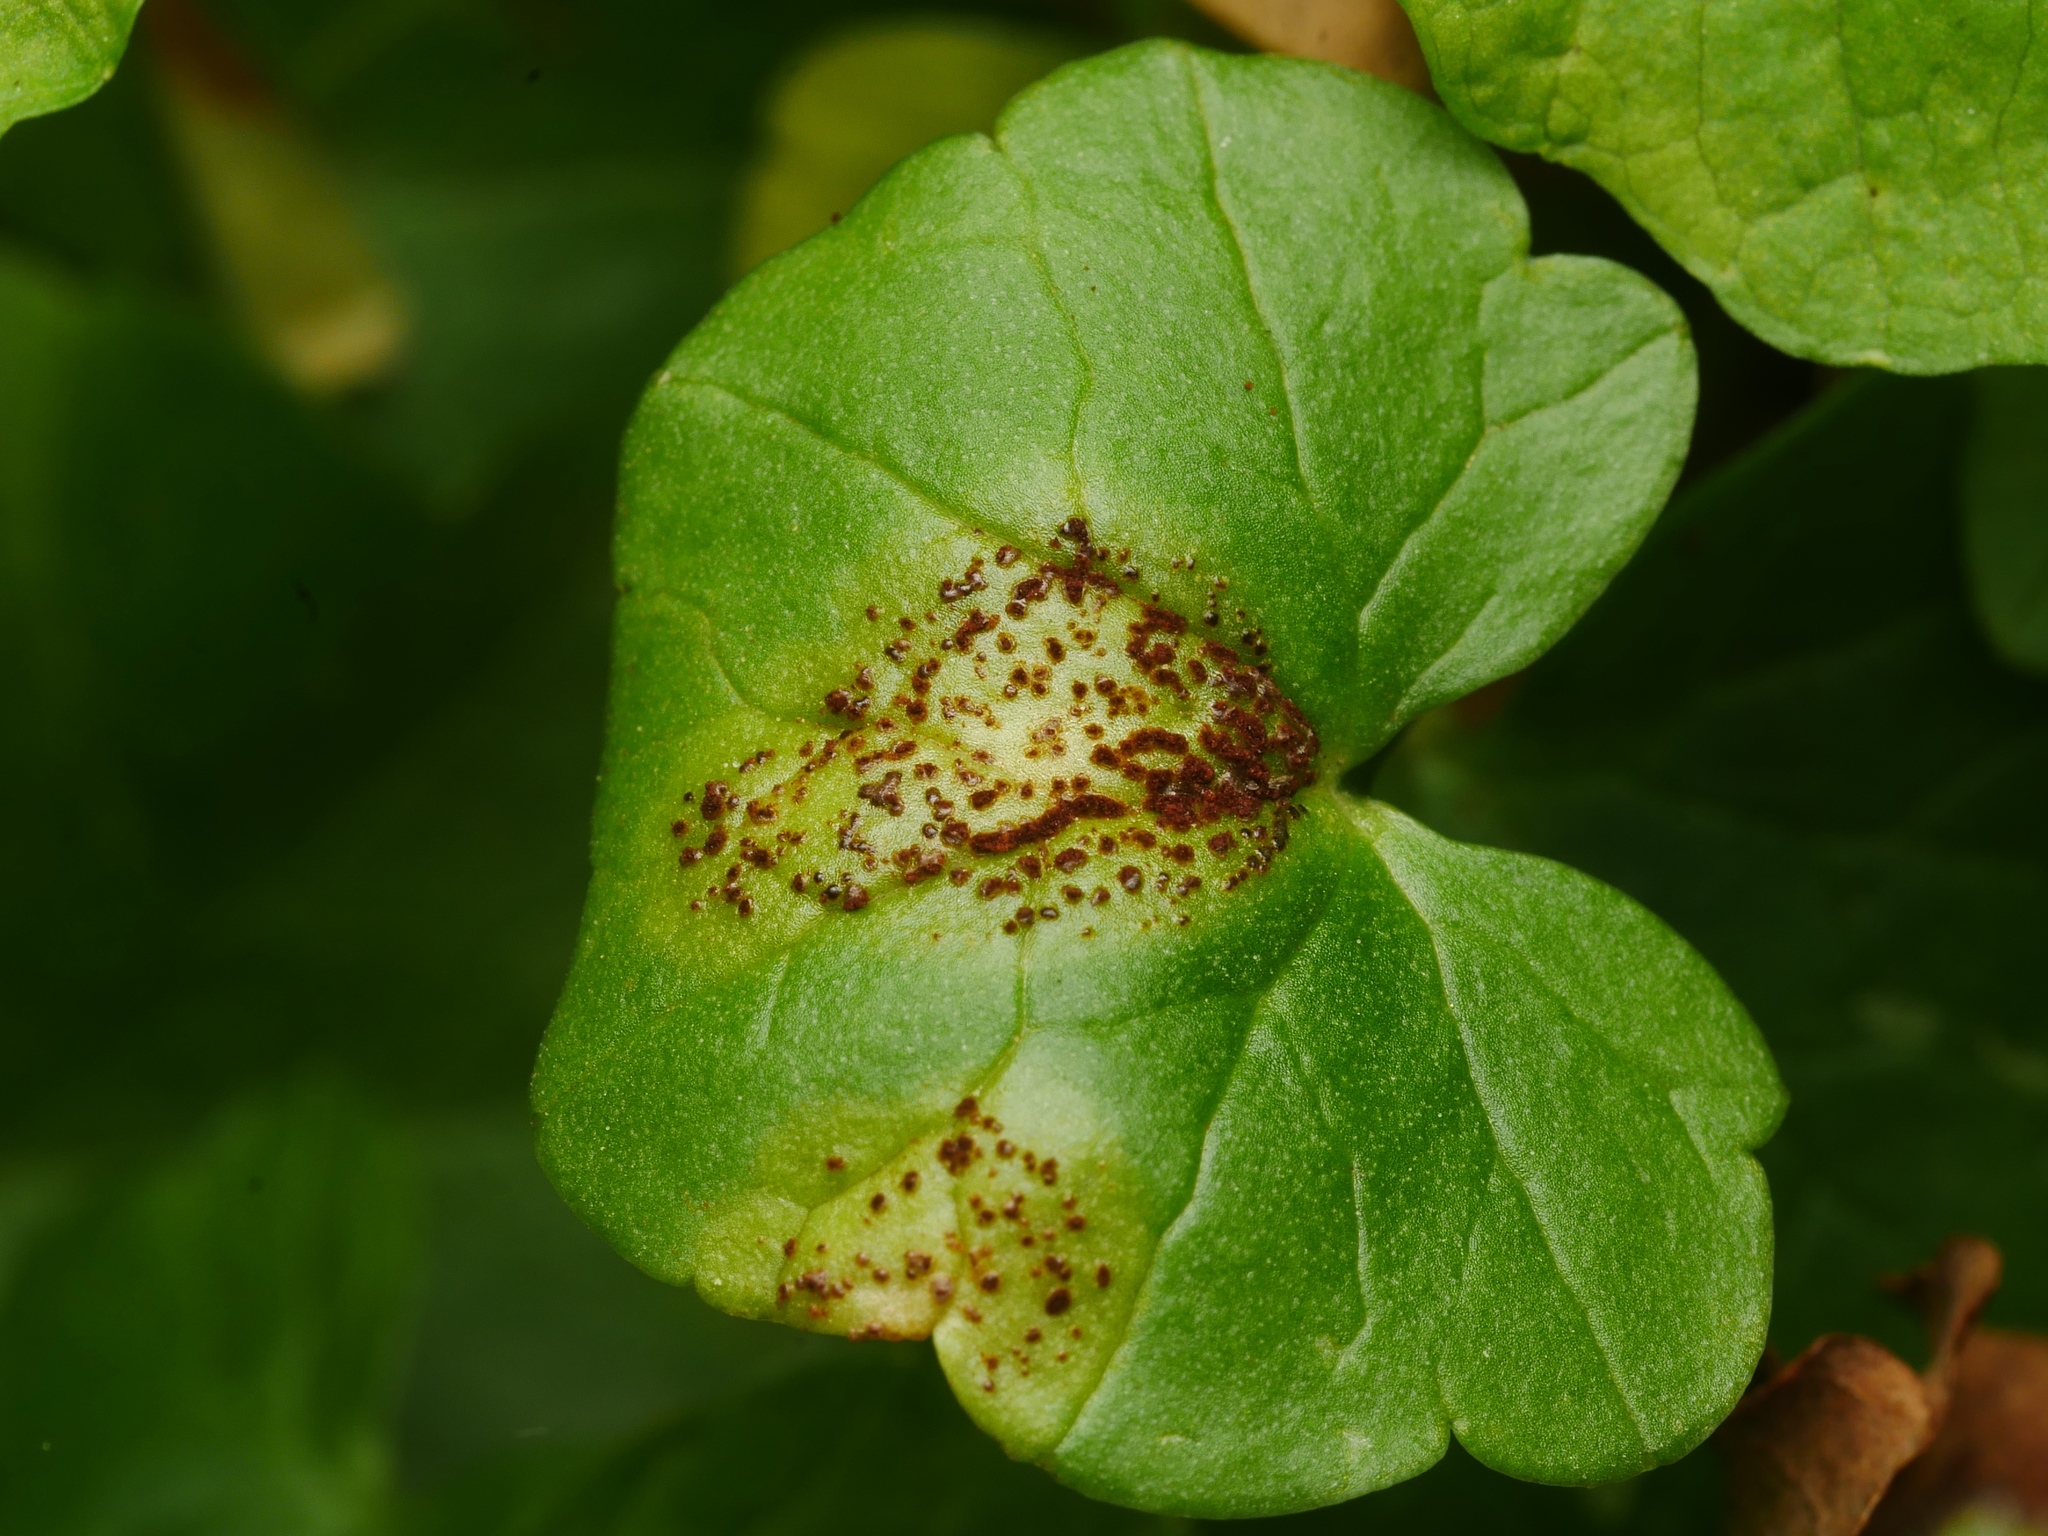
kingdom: Fungi
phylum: Basidiomycota
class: Pucciniomycetes
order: Pucciniales
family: Pucciniaceae
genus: Uromyces
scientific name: Uromyces ficariae
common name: Bitter chocolate rust
